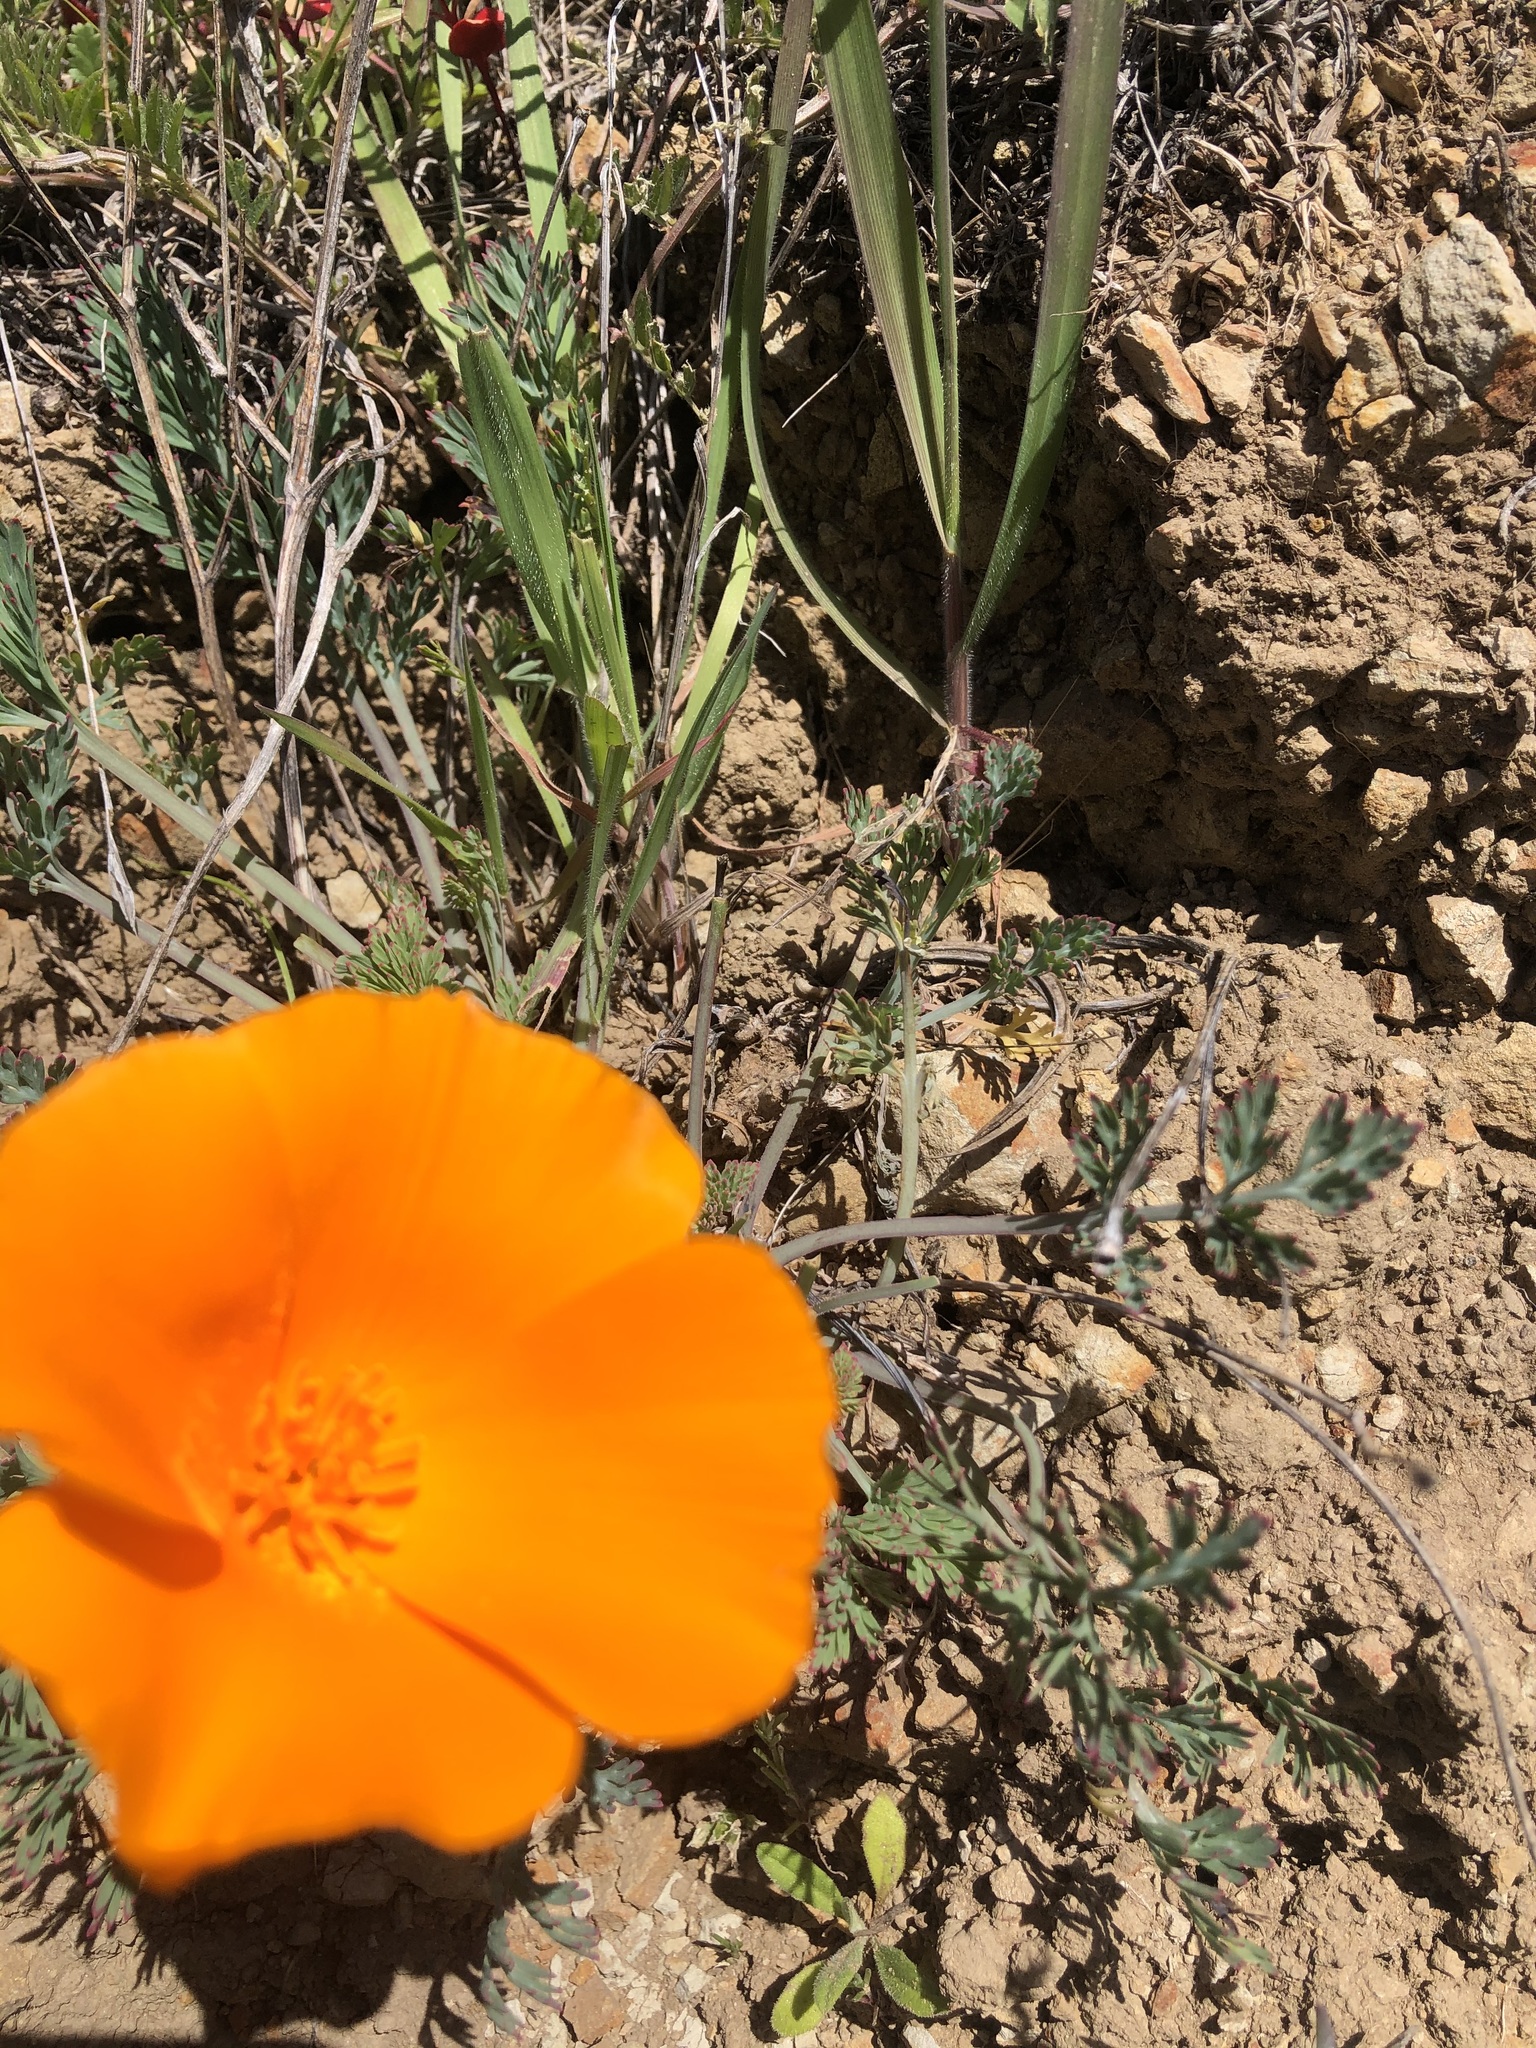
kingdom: Plantae
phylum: Tracheophyta
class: Magnoliopsida
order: Ranunculales
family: Papaveraceae
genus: Eschscholzia
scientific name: Eschscholzia californica
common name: California poppy
